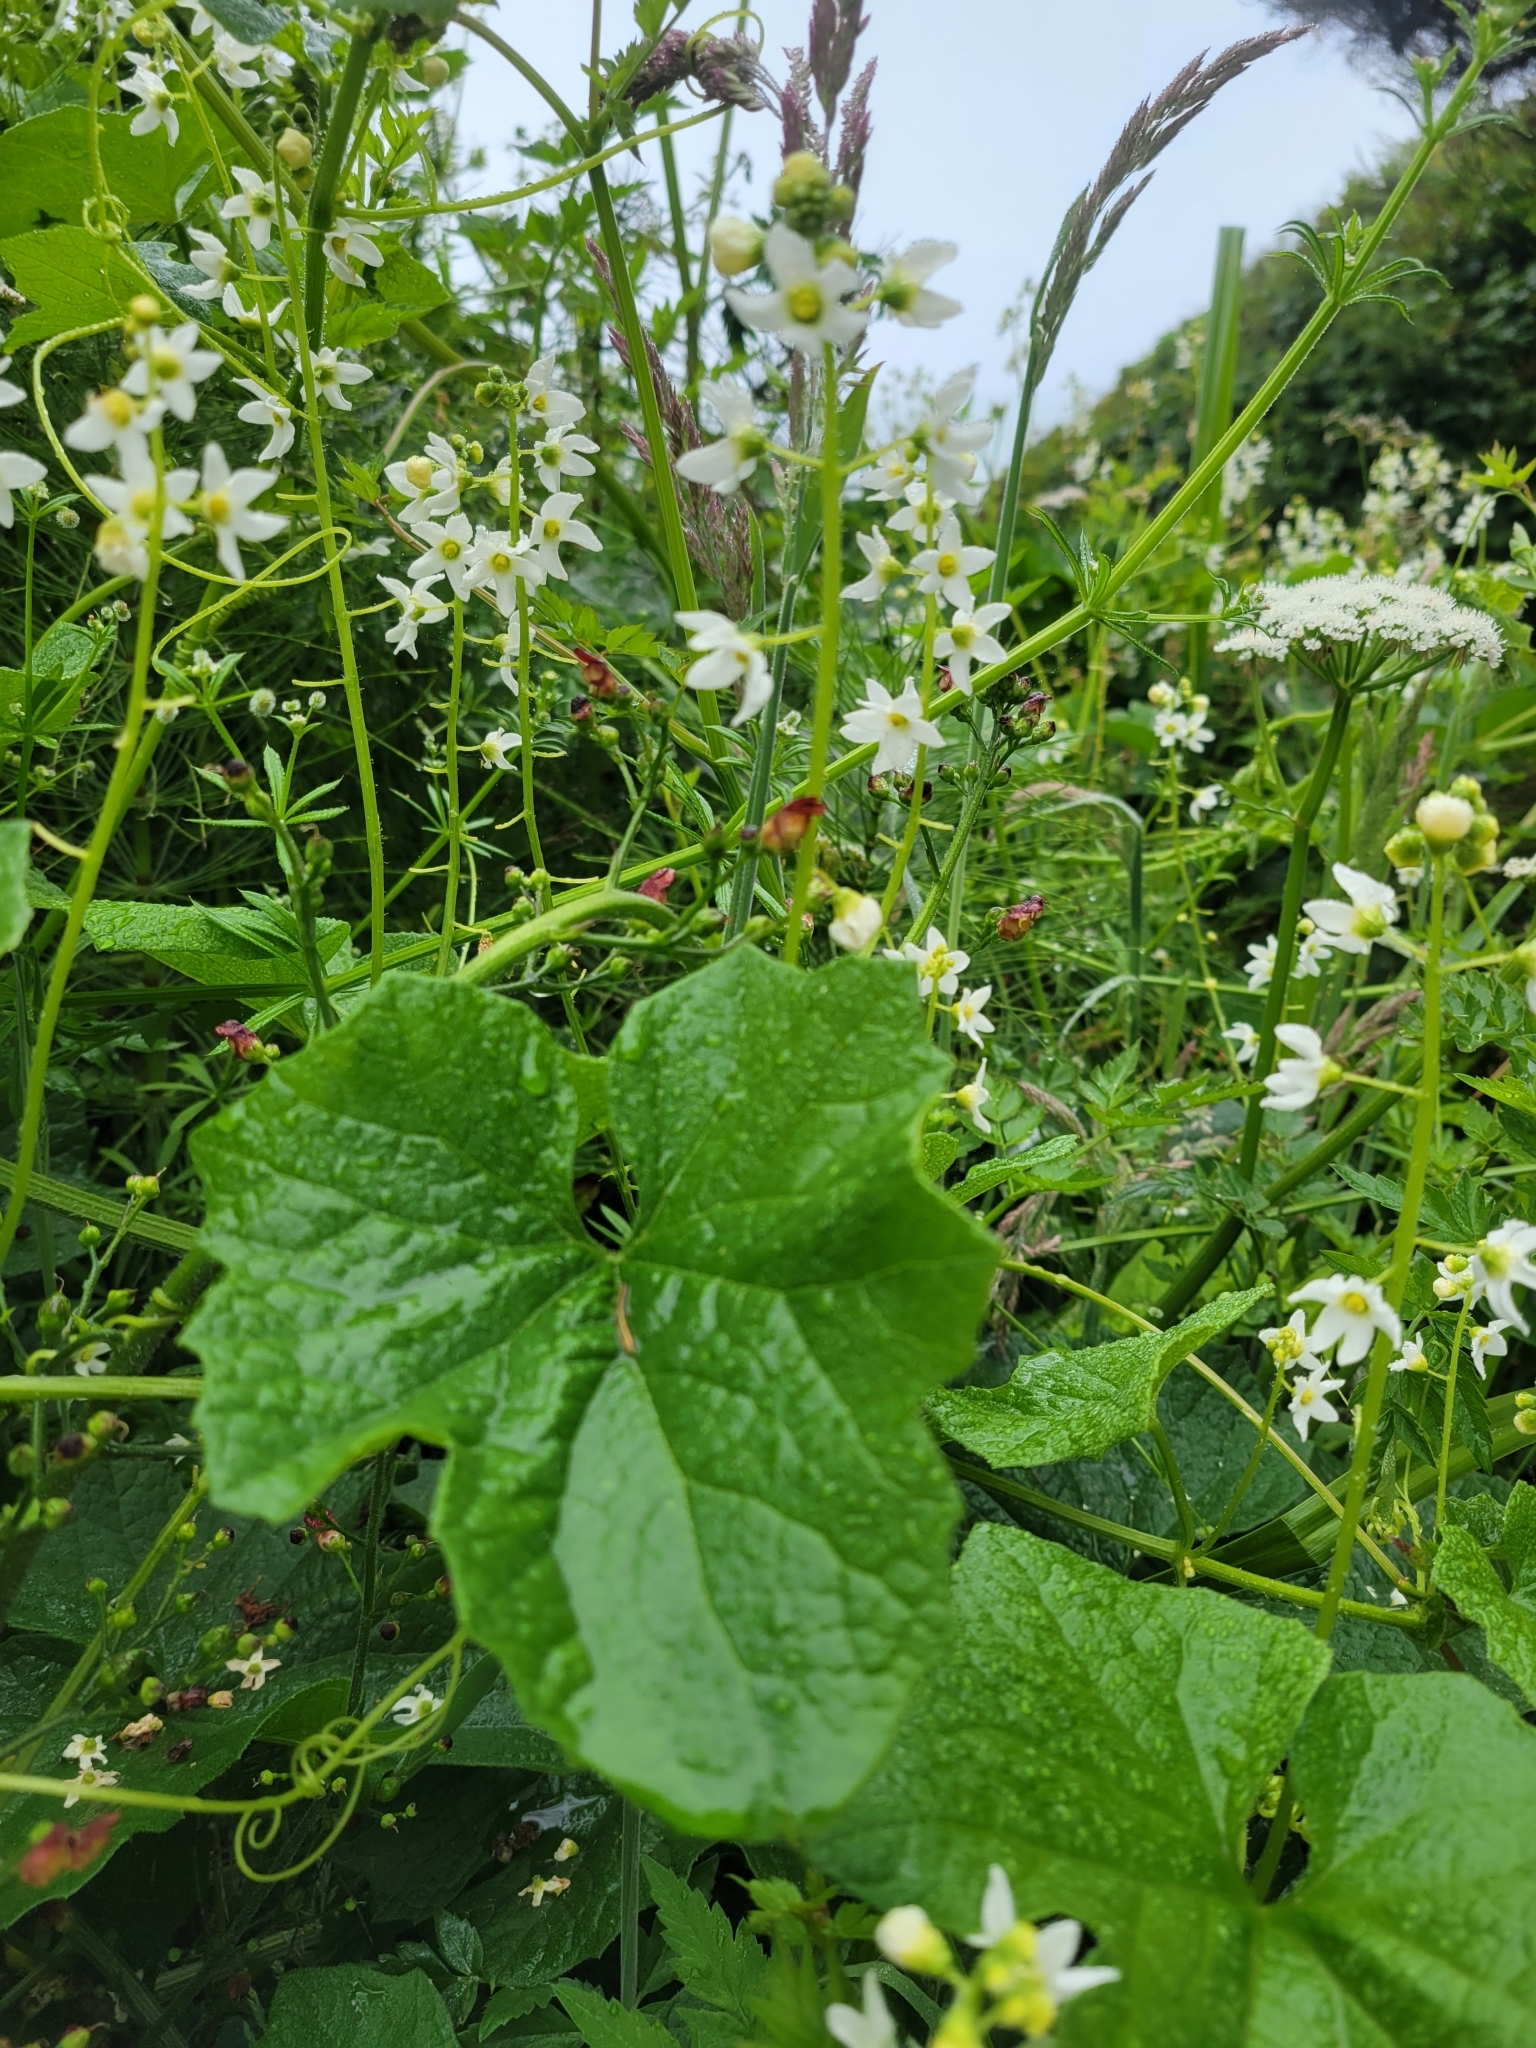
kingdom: Plantae
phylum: Tracheophyta
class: Magnoliopsida
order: Cucurbitales
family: Cucurbitaceae
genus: Marah
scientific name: Marah oregana
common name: Coastal manroot
